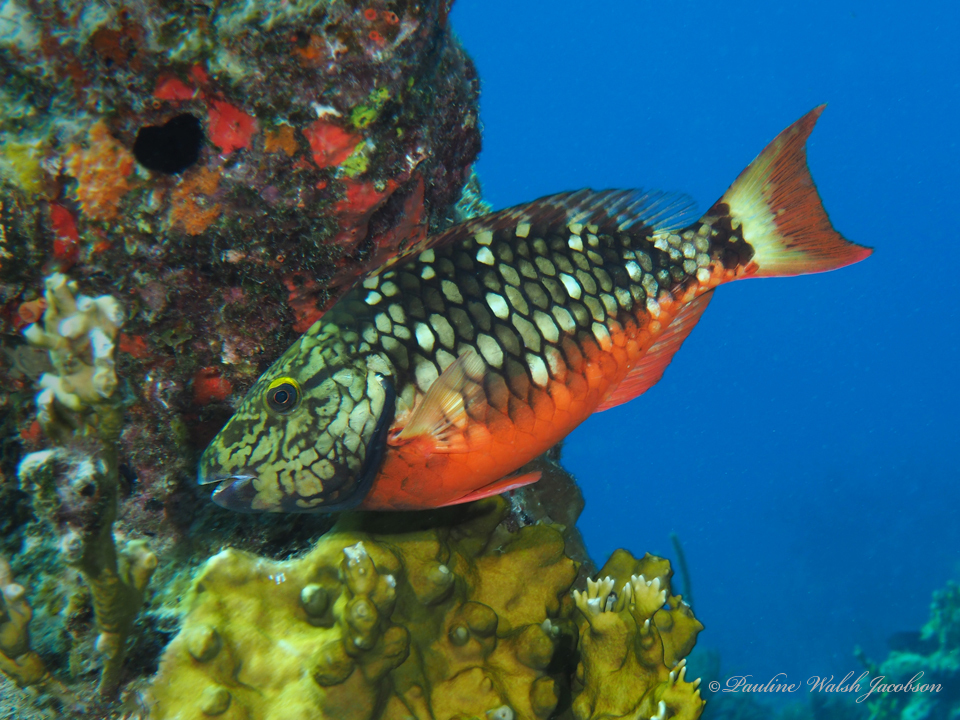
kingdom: Animalia
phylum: Chordata
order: Perciformes
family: Scaridae
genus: Sparisoma
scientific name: Sparisoma viride
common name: Stoplight parrotfish
